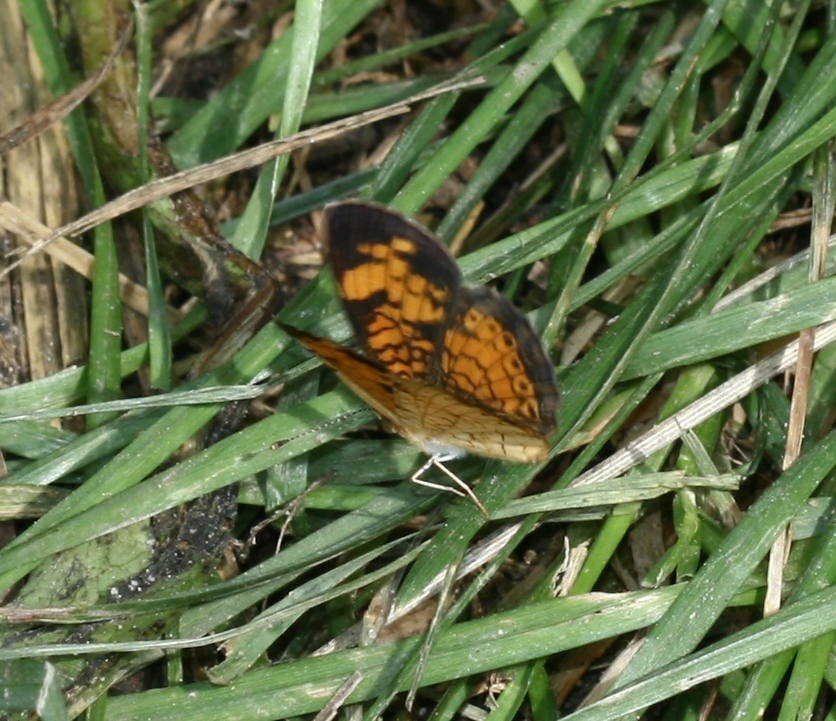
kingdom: Animalia
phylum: Arthropoda
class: Insecta
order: Lepidoptera
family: Nymphalidae
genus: Phyciodes
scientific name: Phyciodes tharos
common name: Pearl crescent
